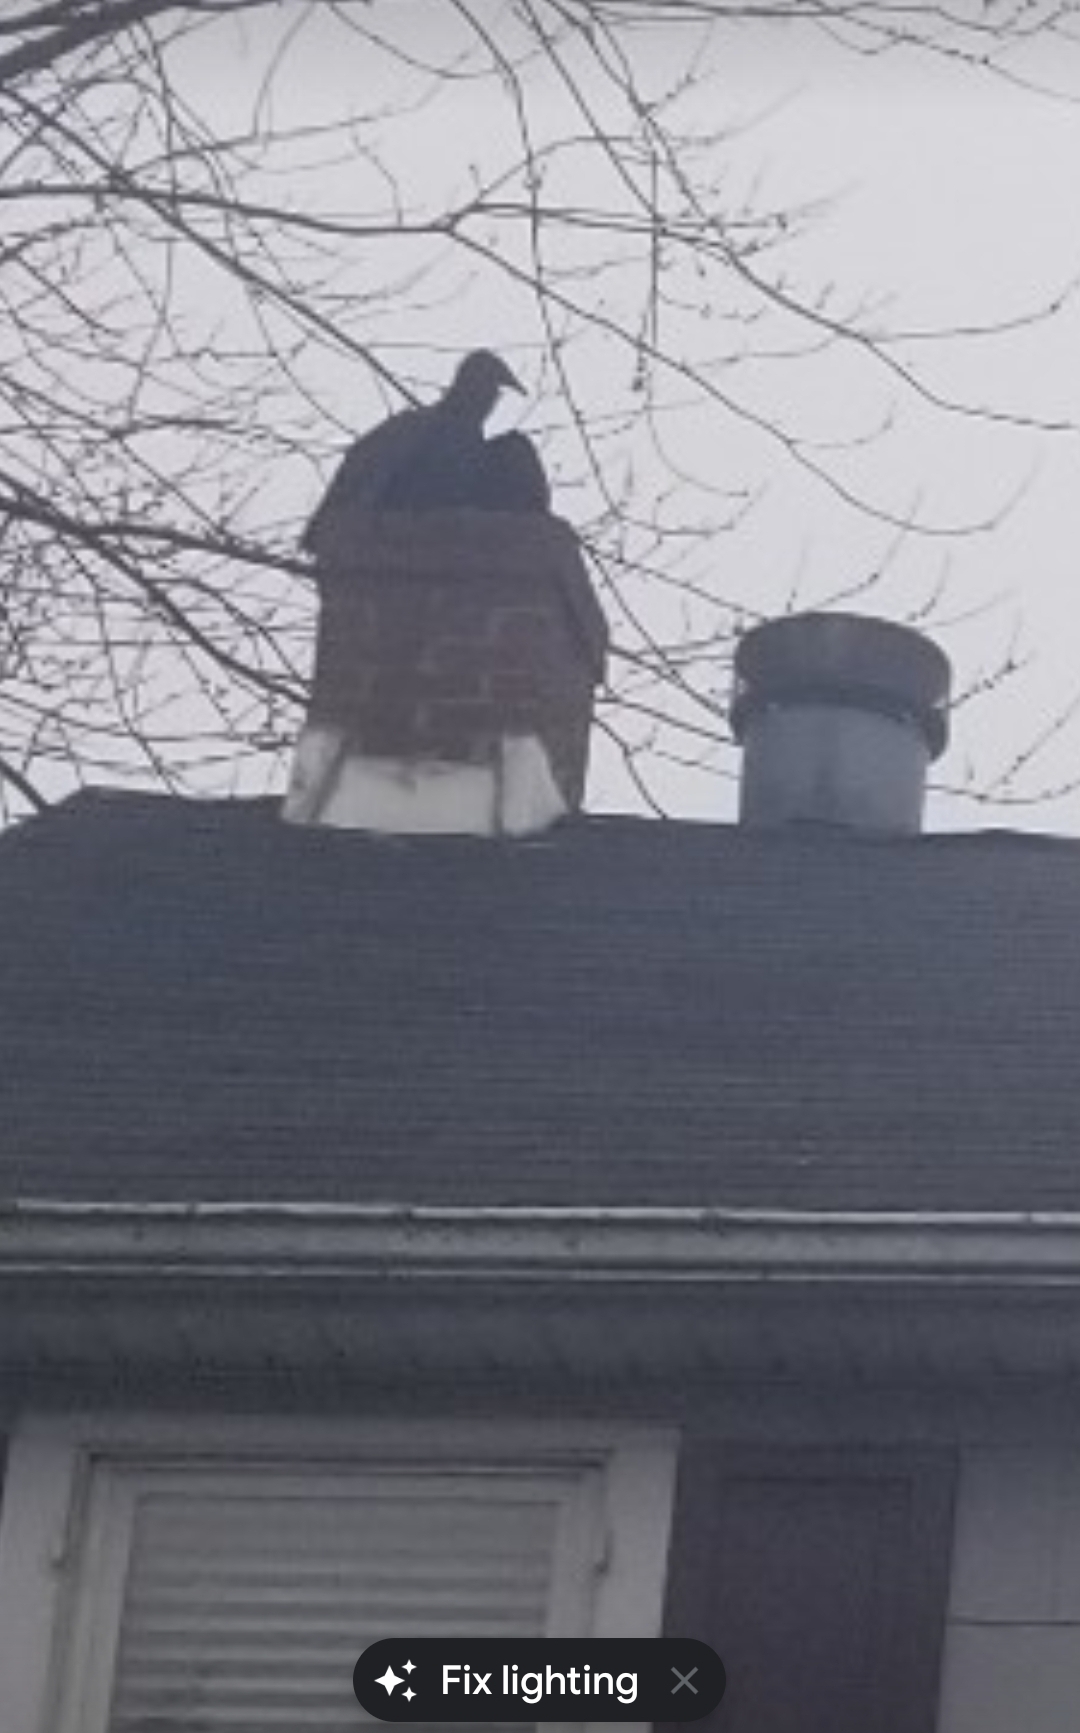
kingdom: Animalia
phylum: Chordata
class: Aves
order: Accipitriformes
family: Cathartidae
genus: Coragyps
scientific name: Coragyps atratus
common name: Black vulture
